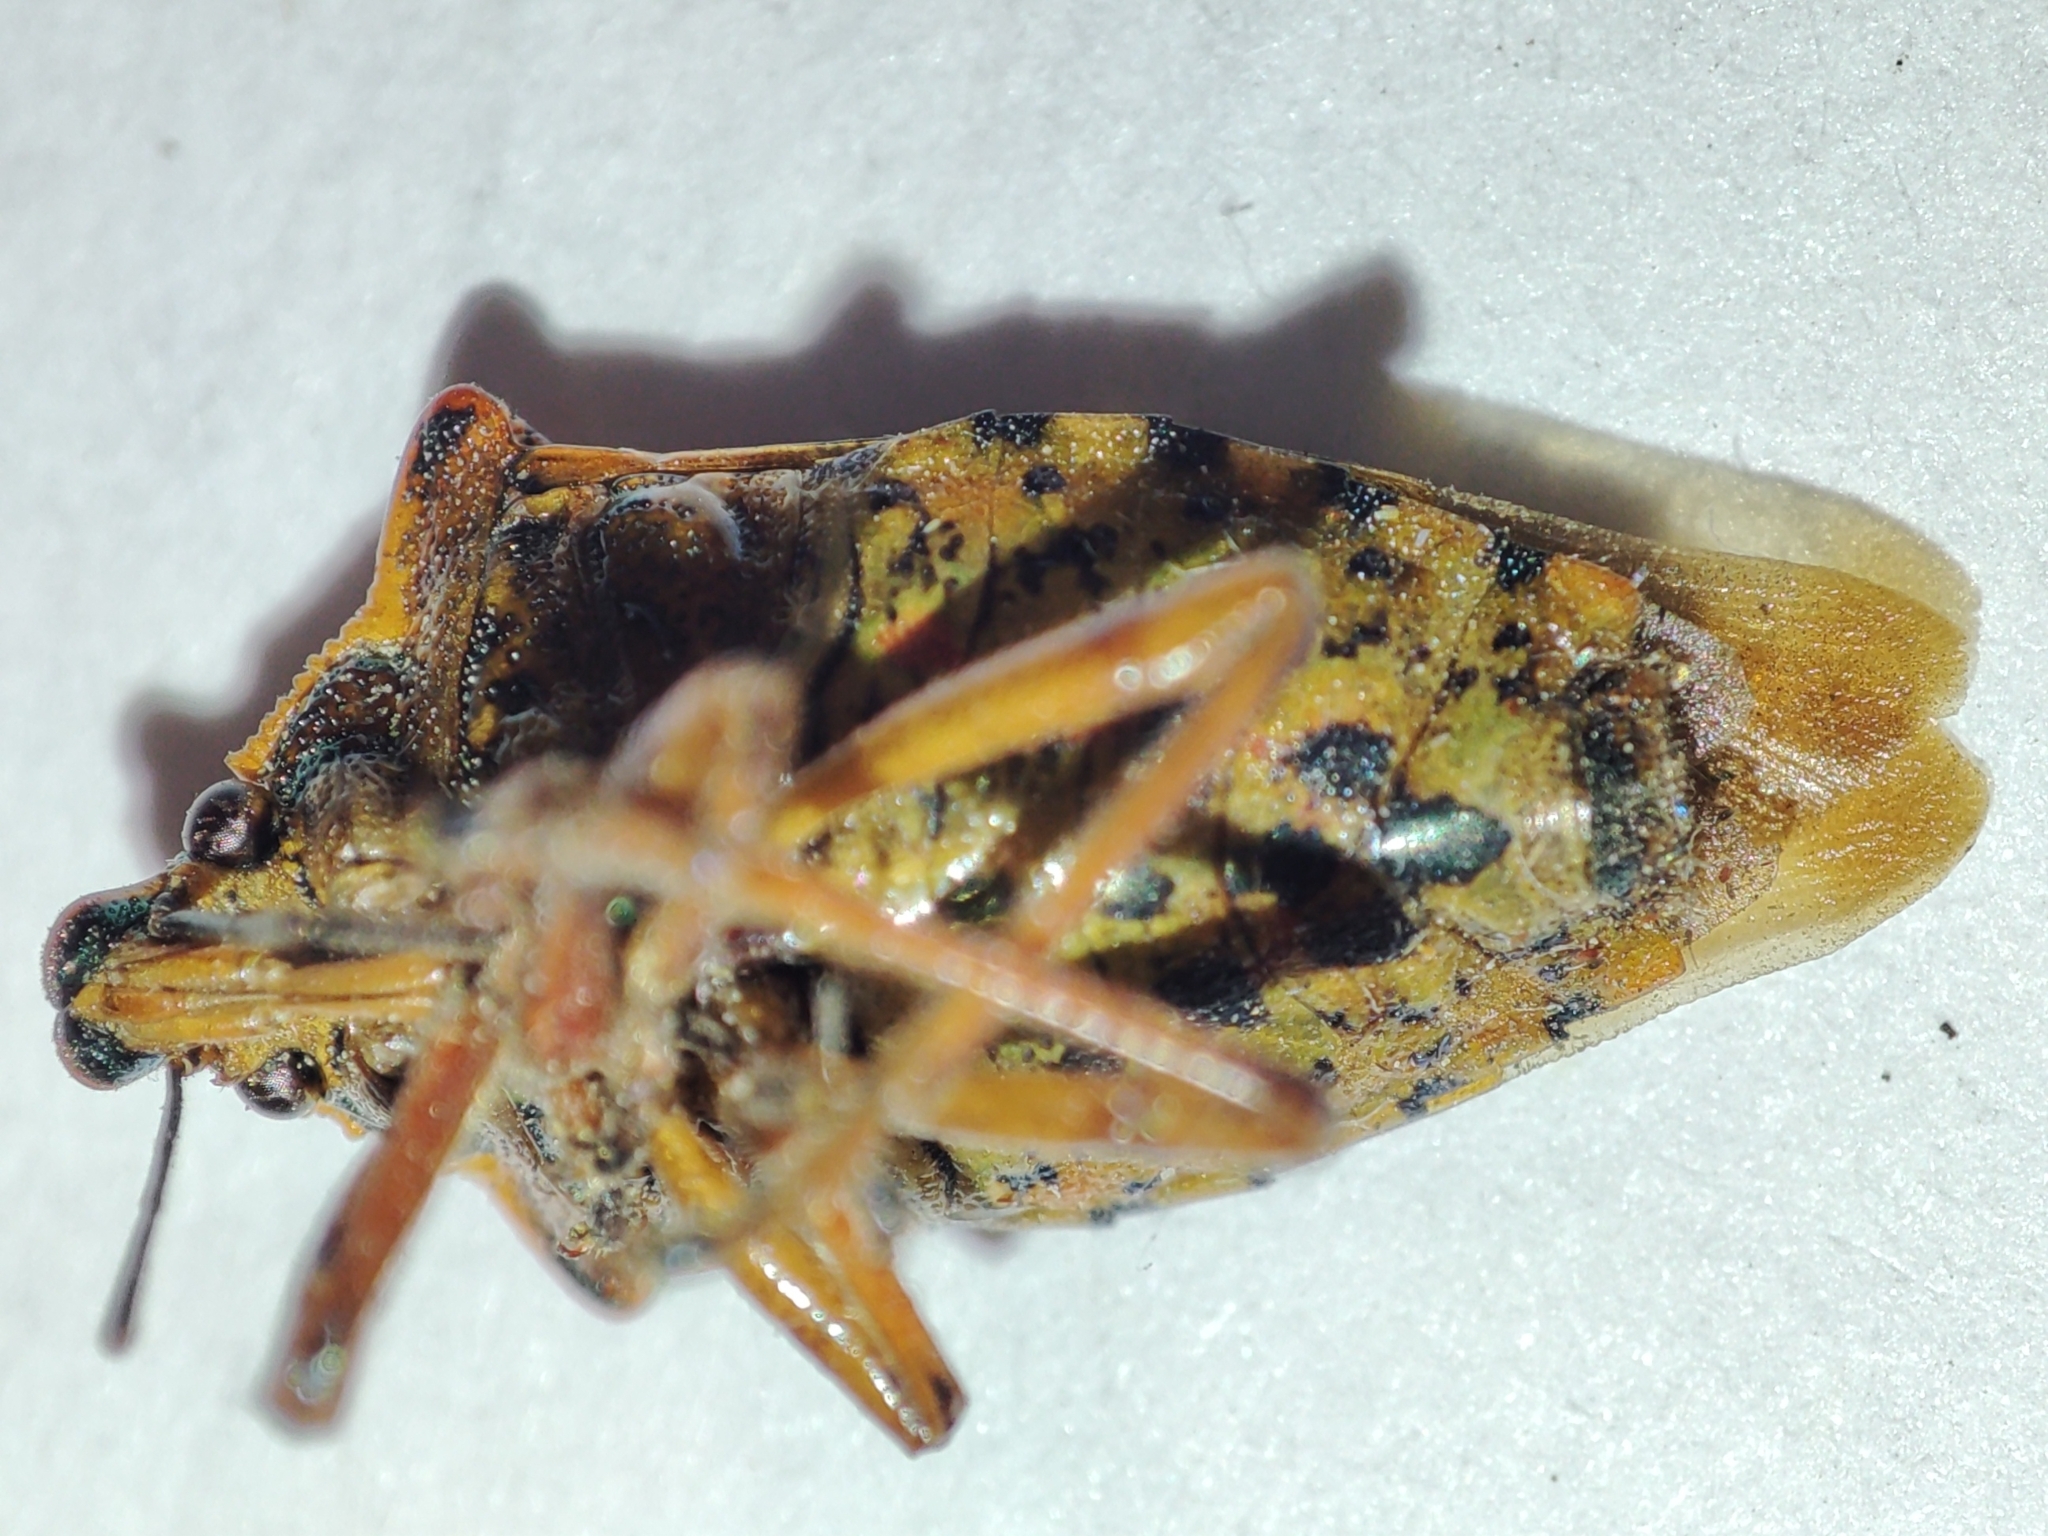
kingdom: Animalia
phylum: Arthropoda
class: Insecta
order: Hemiptera
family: Pentatomidae
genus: Pinthaeus
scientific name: Pinthaeus sanguinipes
